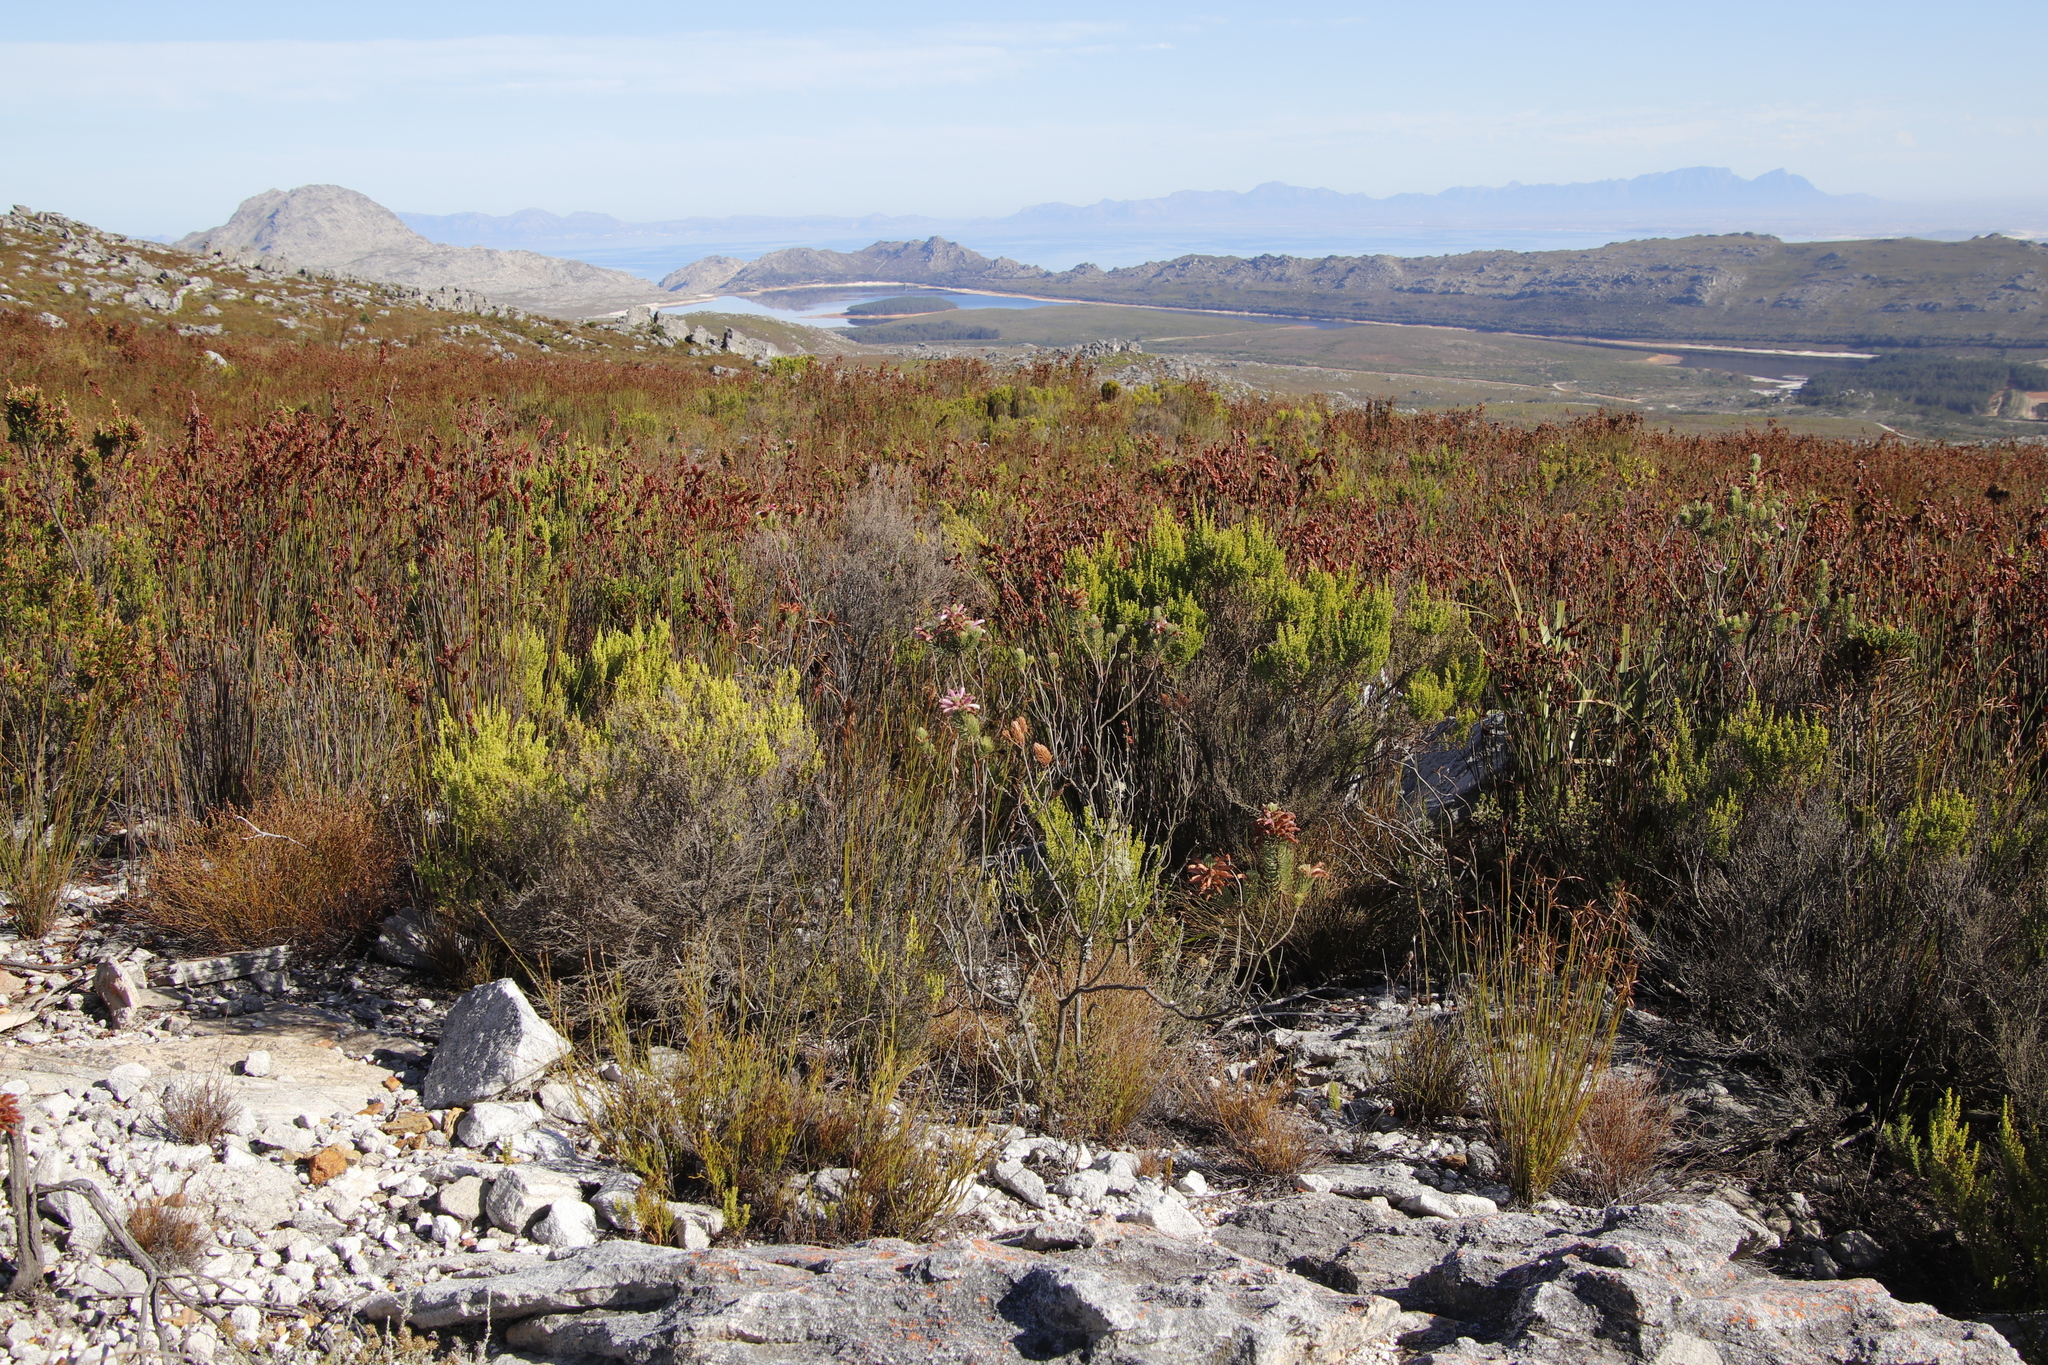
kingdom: Plantae
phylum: Tracheophyta
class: Magnoliopsida
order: Ericales
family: Ericaceae
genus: Erica
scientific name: Erica viscaria
